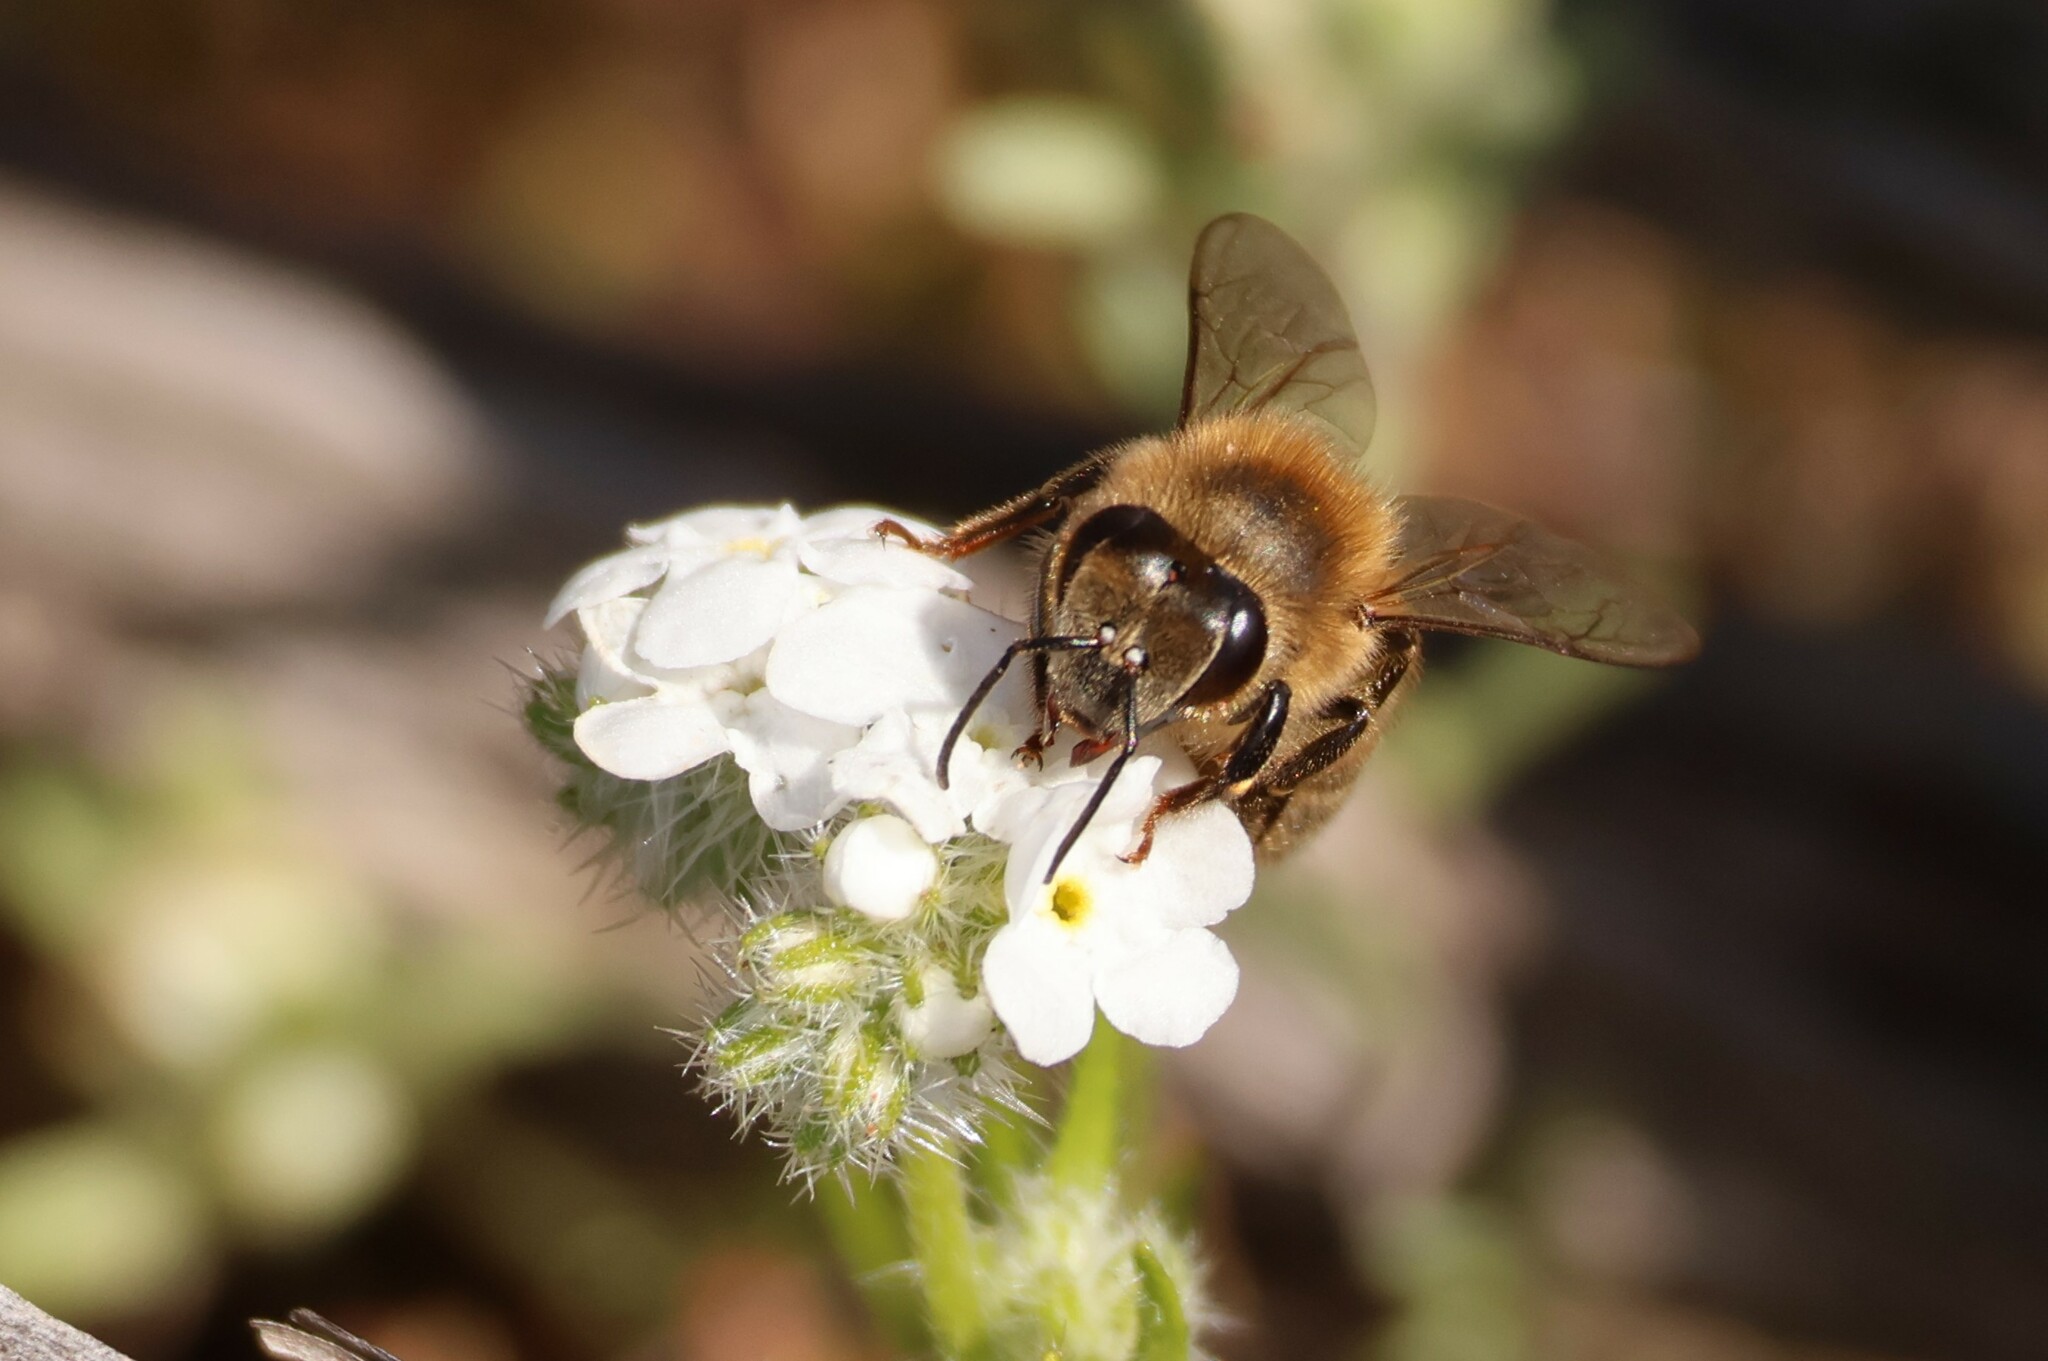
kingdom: Animalia
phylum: Arthropoda
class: Insecta
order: Hymenoptera
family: Apidae
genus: Apis
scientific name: Apis mellifera
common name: Honey bee
